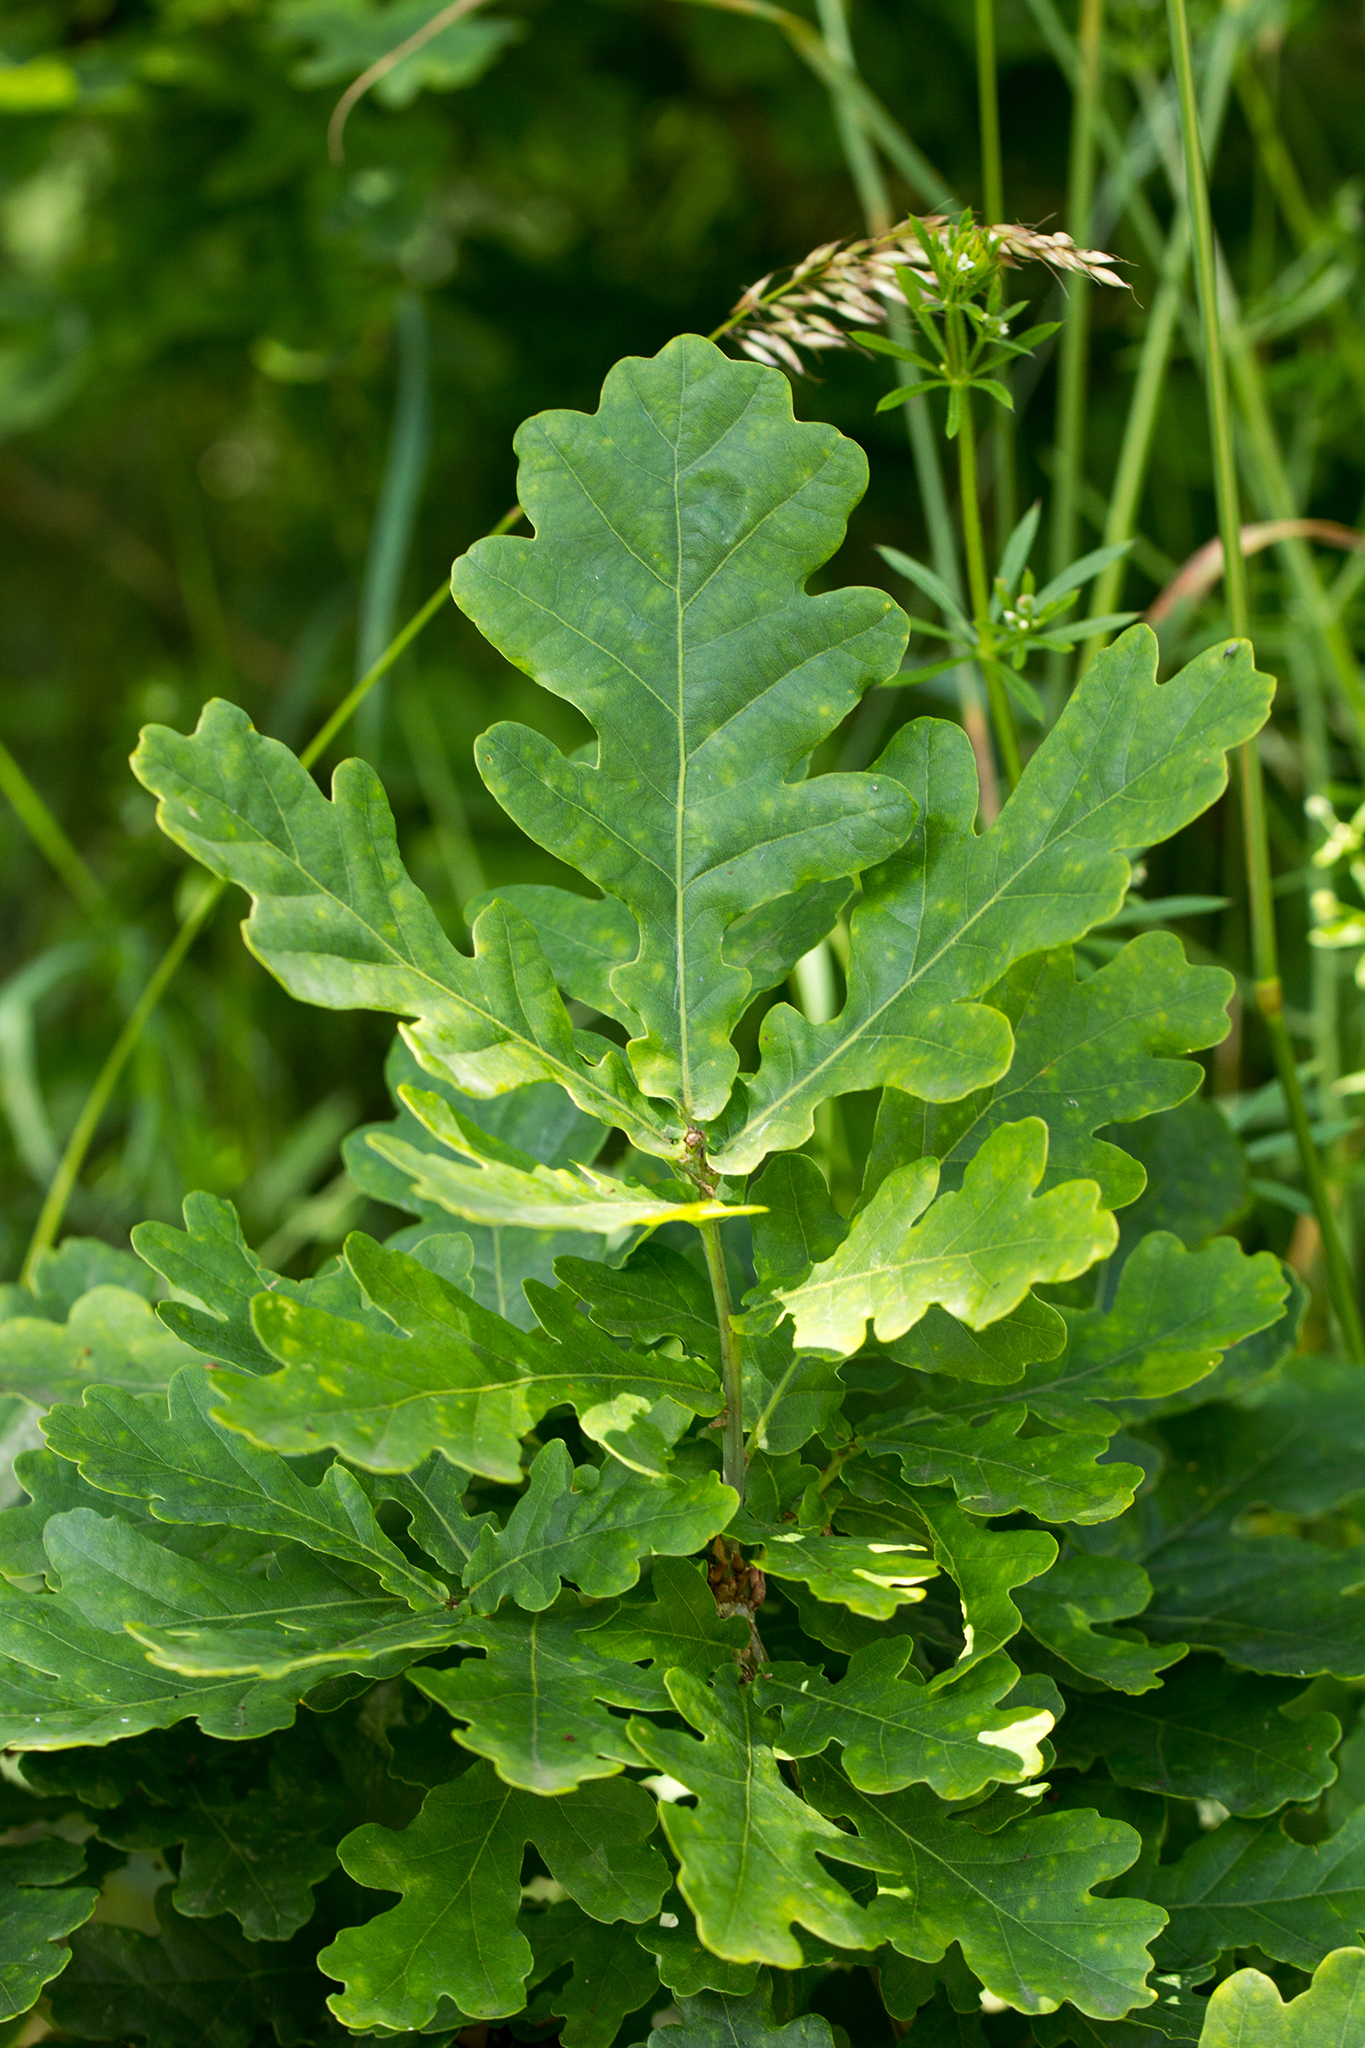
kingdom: Plantae
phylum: Tracheophyta
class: Magnoliopsida
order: Fagales
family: Fagaceae
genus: Quercus
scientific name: Quercus robur
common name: Pedunculate oak
